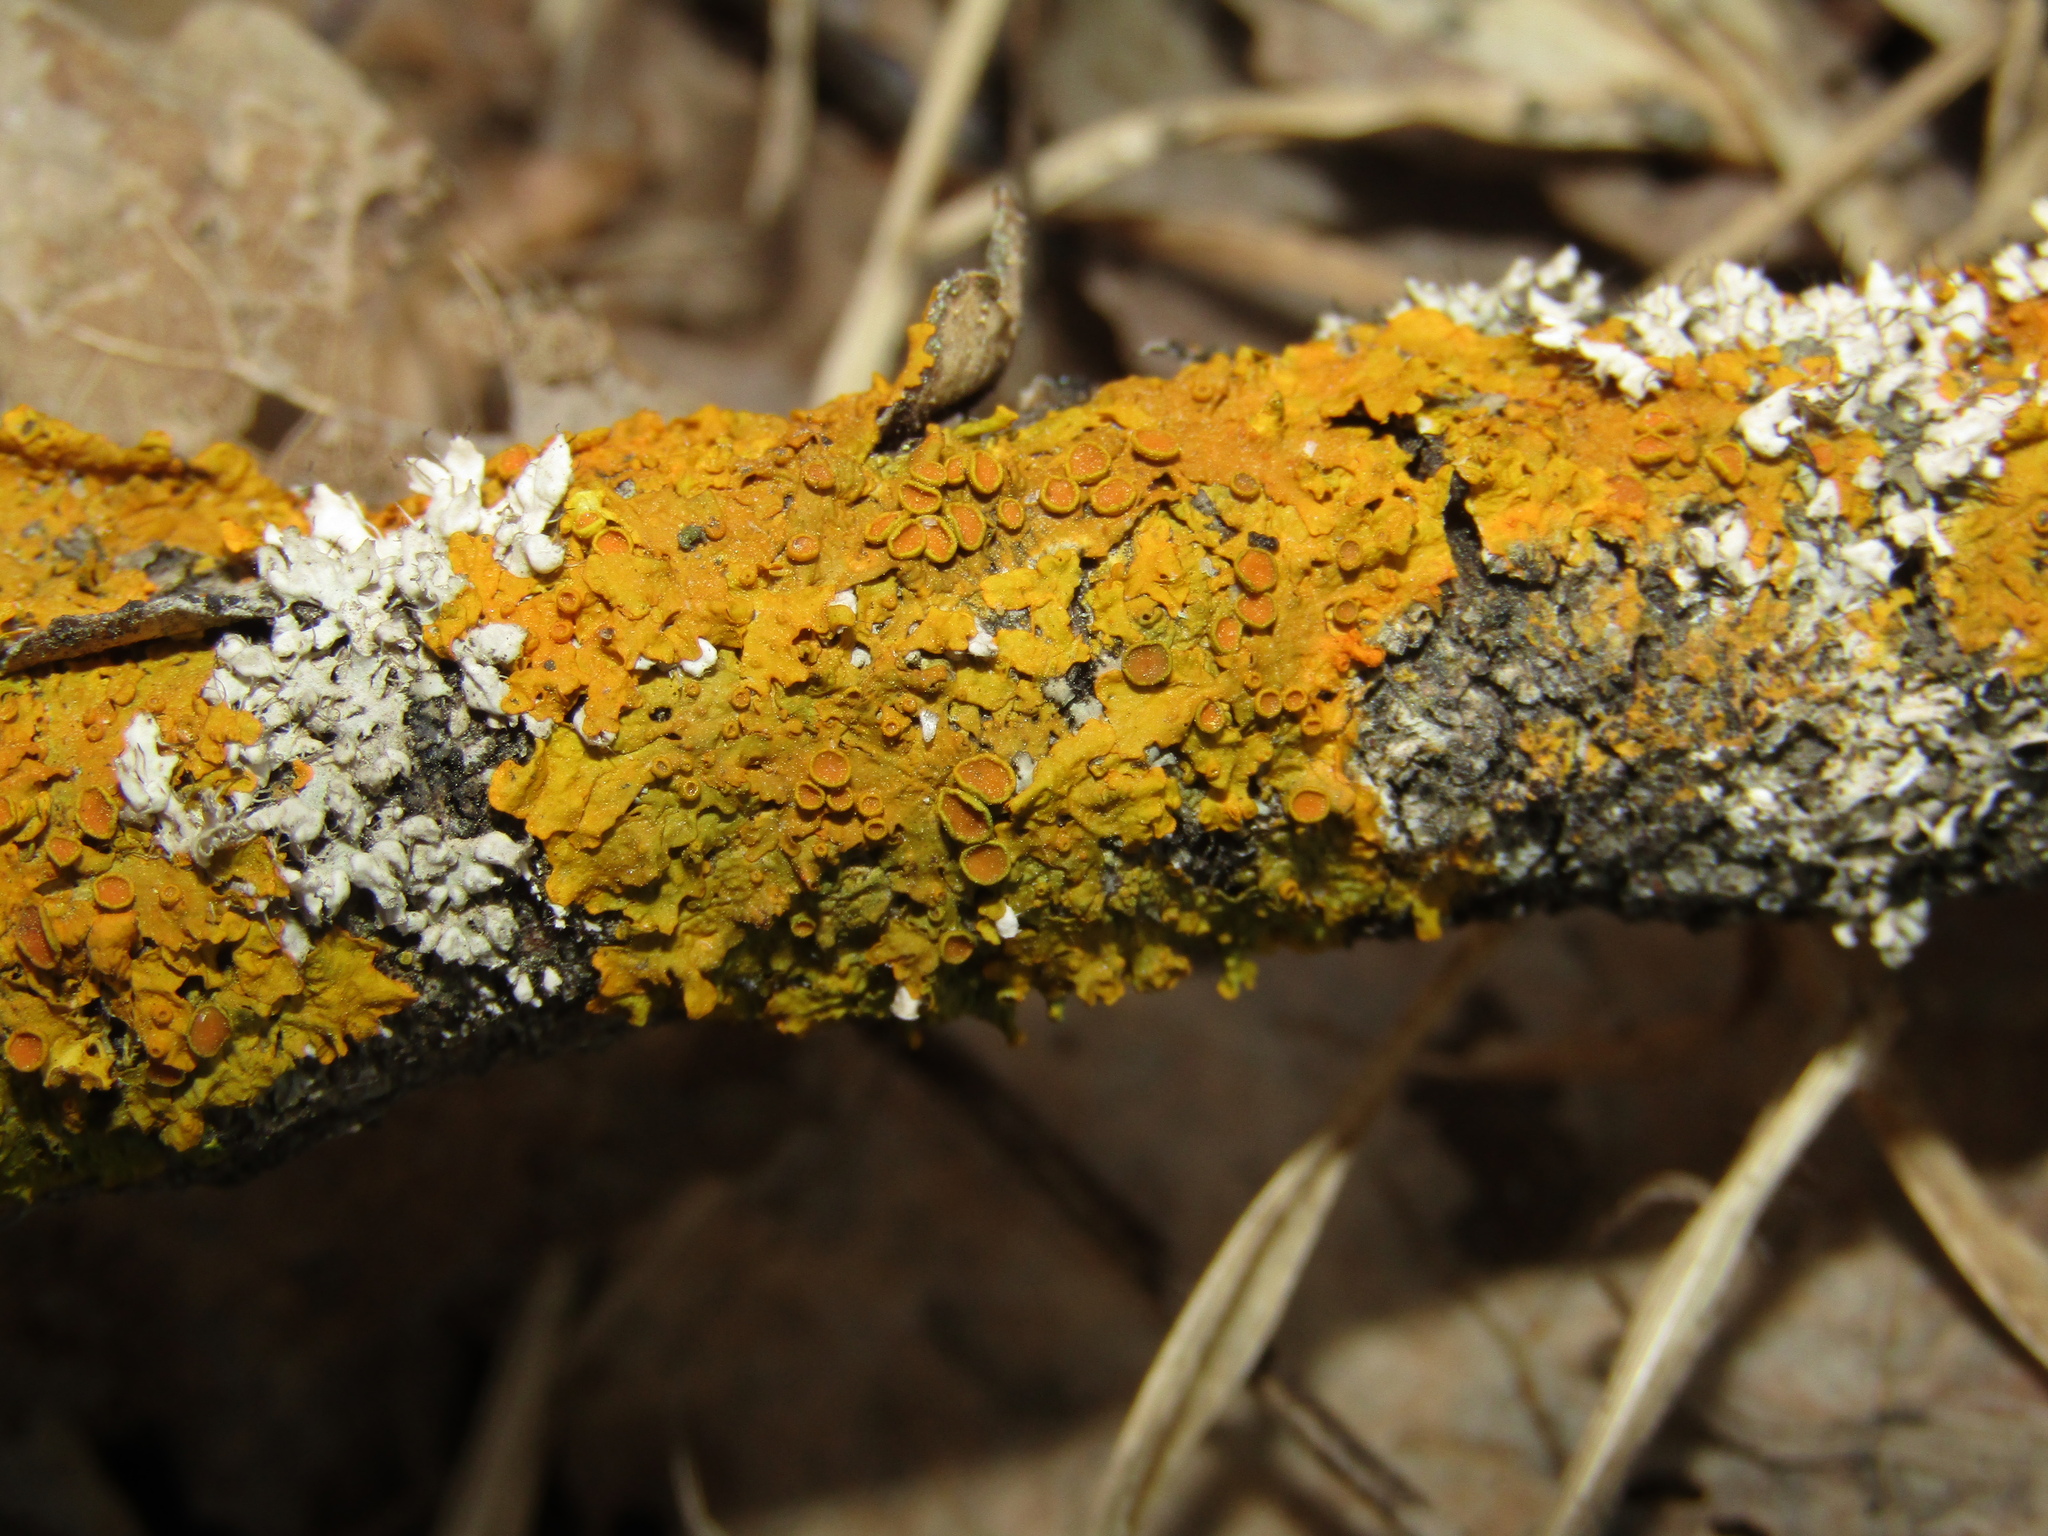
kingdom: Fungi
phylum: Ascomycota
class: Lecanoromycetes
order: Teloschistales
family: Teloschistaceae
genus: Xanthoria
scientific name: Xanthoria parietina
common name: Common orange lichen
